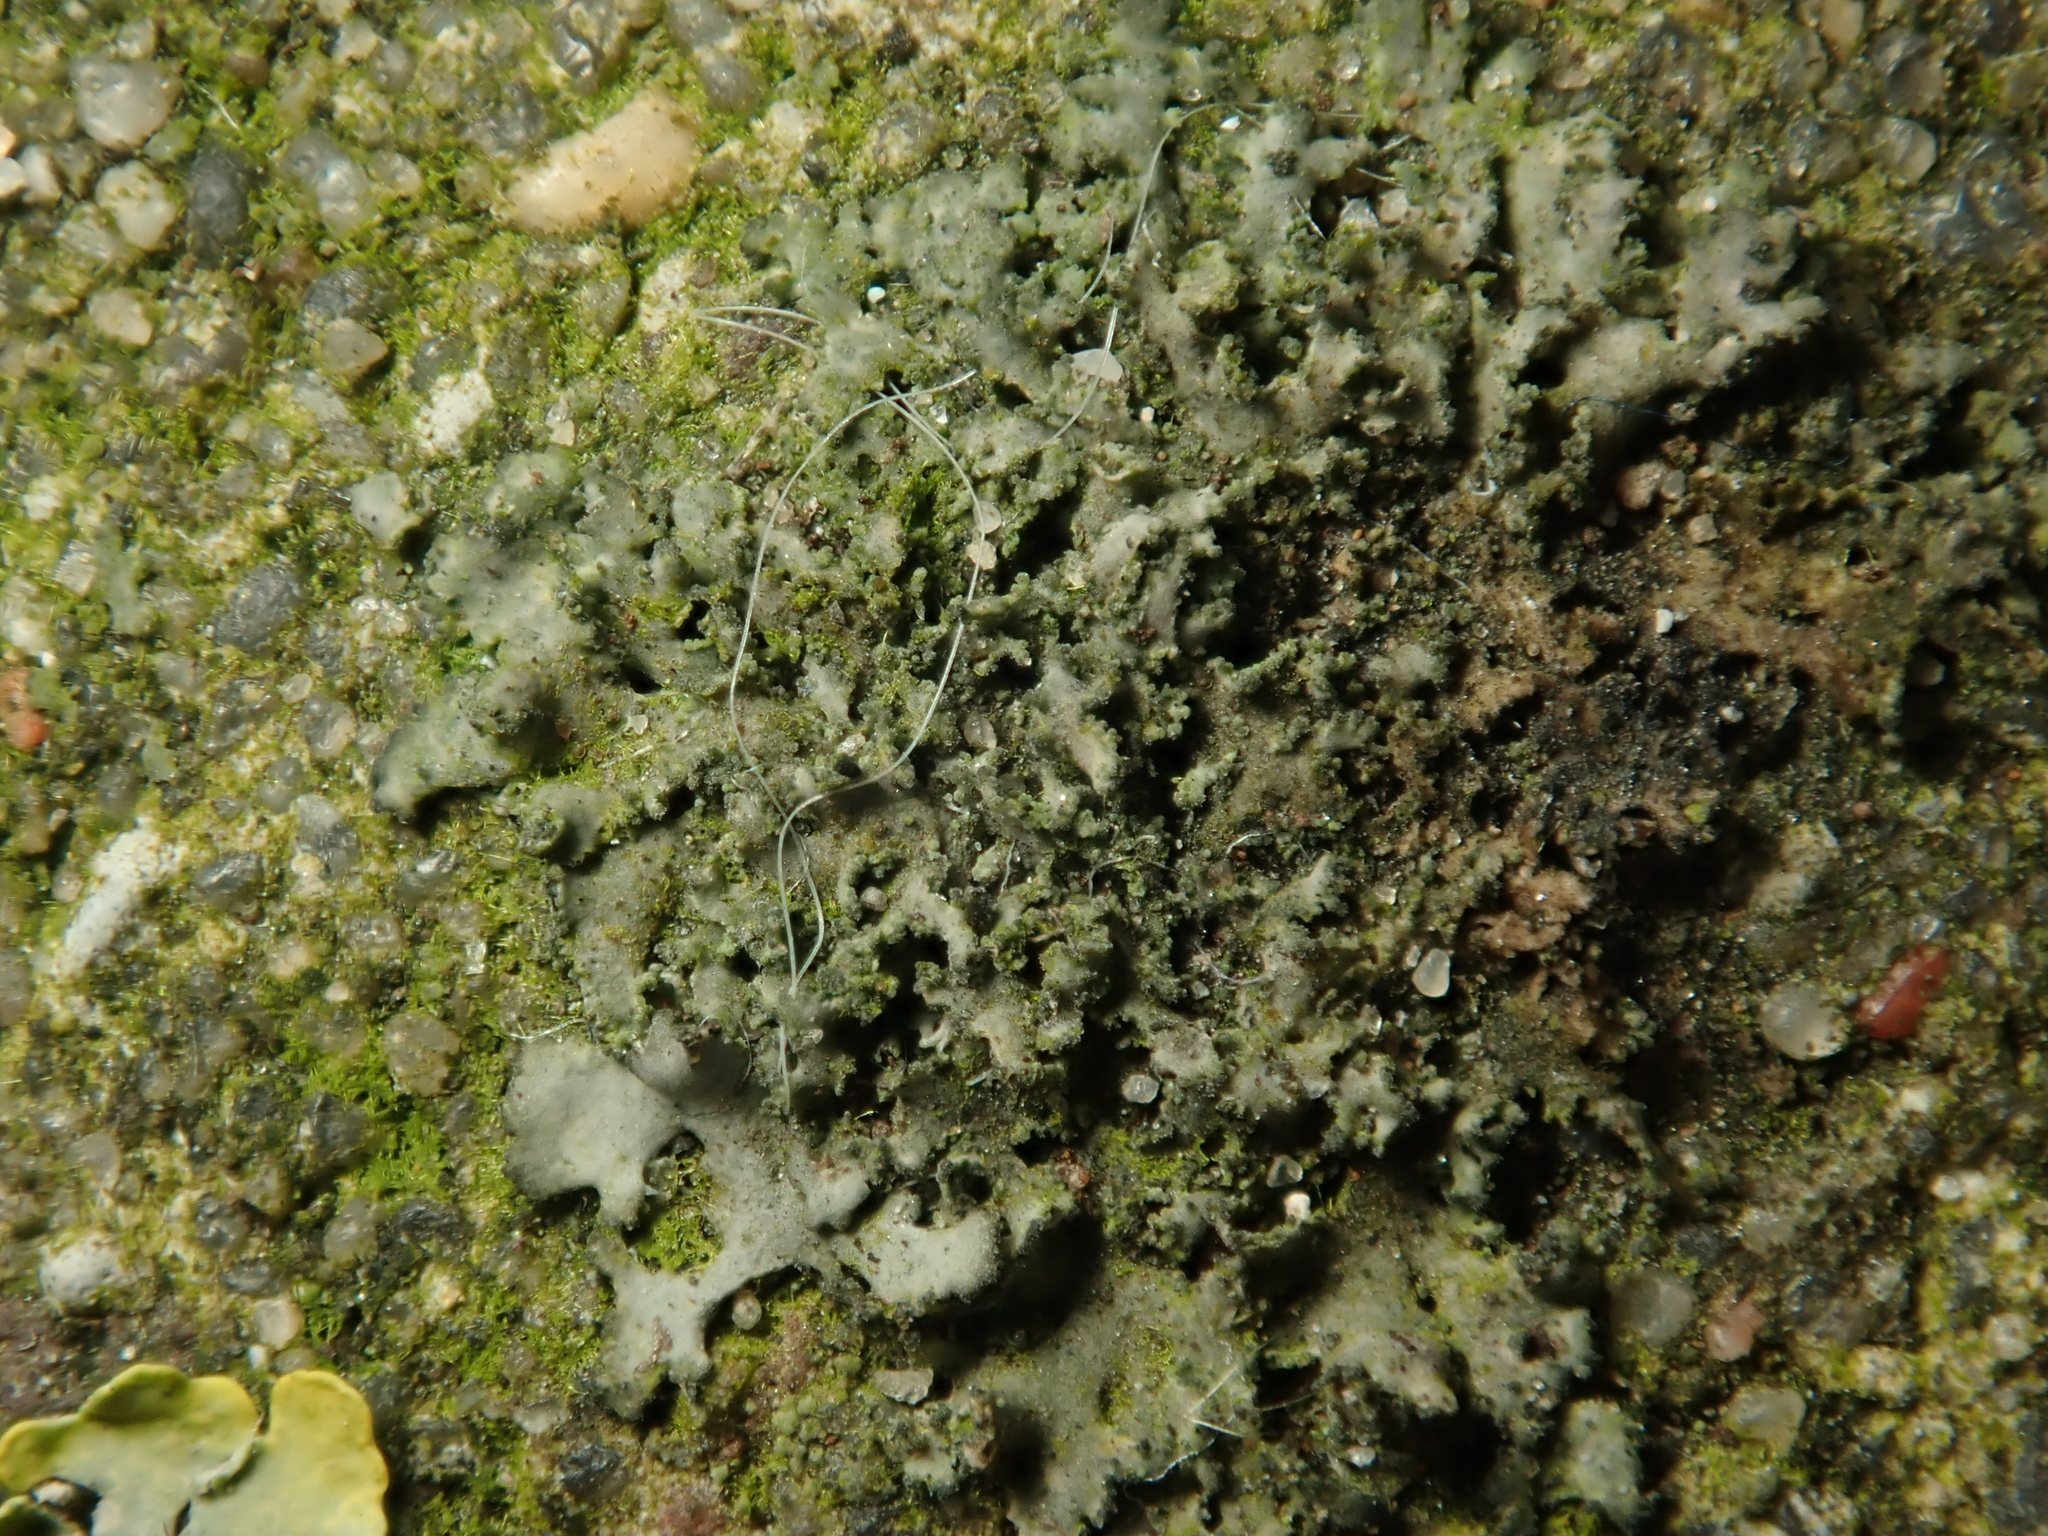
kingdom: Fungi
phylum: Ascomycota
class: Lecanoromycetes
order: Caliciales
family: Physciaceae
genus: Physciella
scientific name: Physciella nigricans
